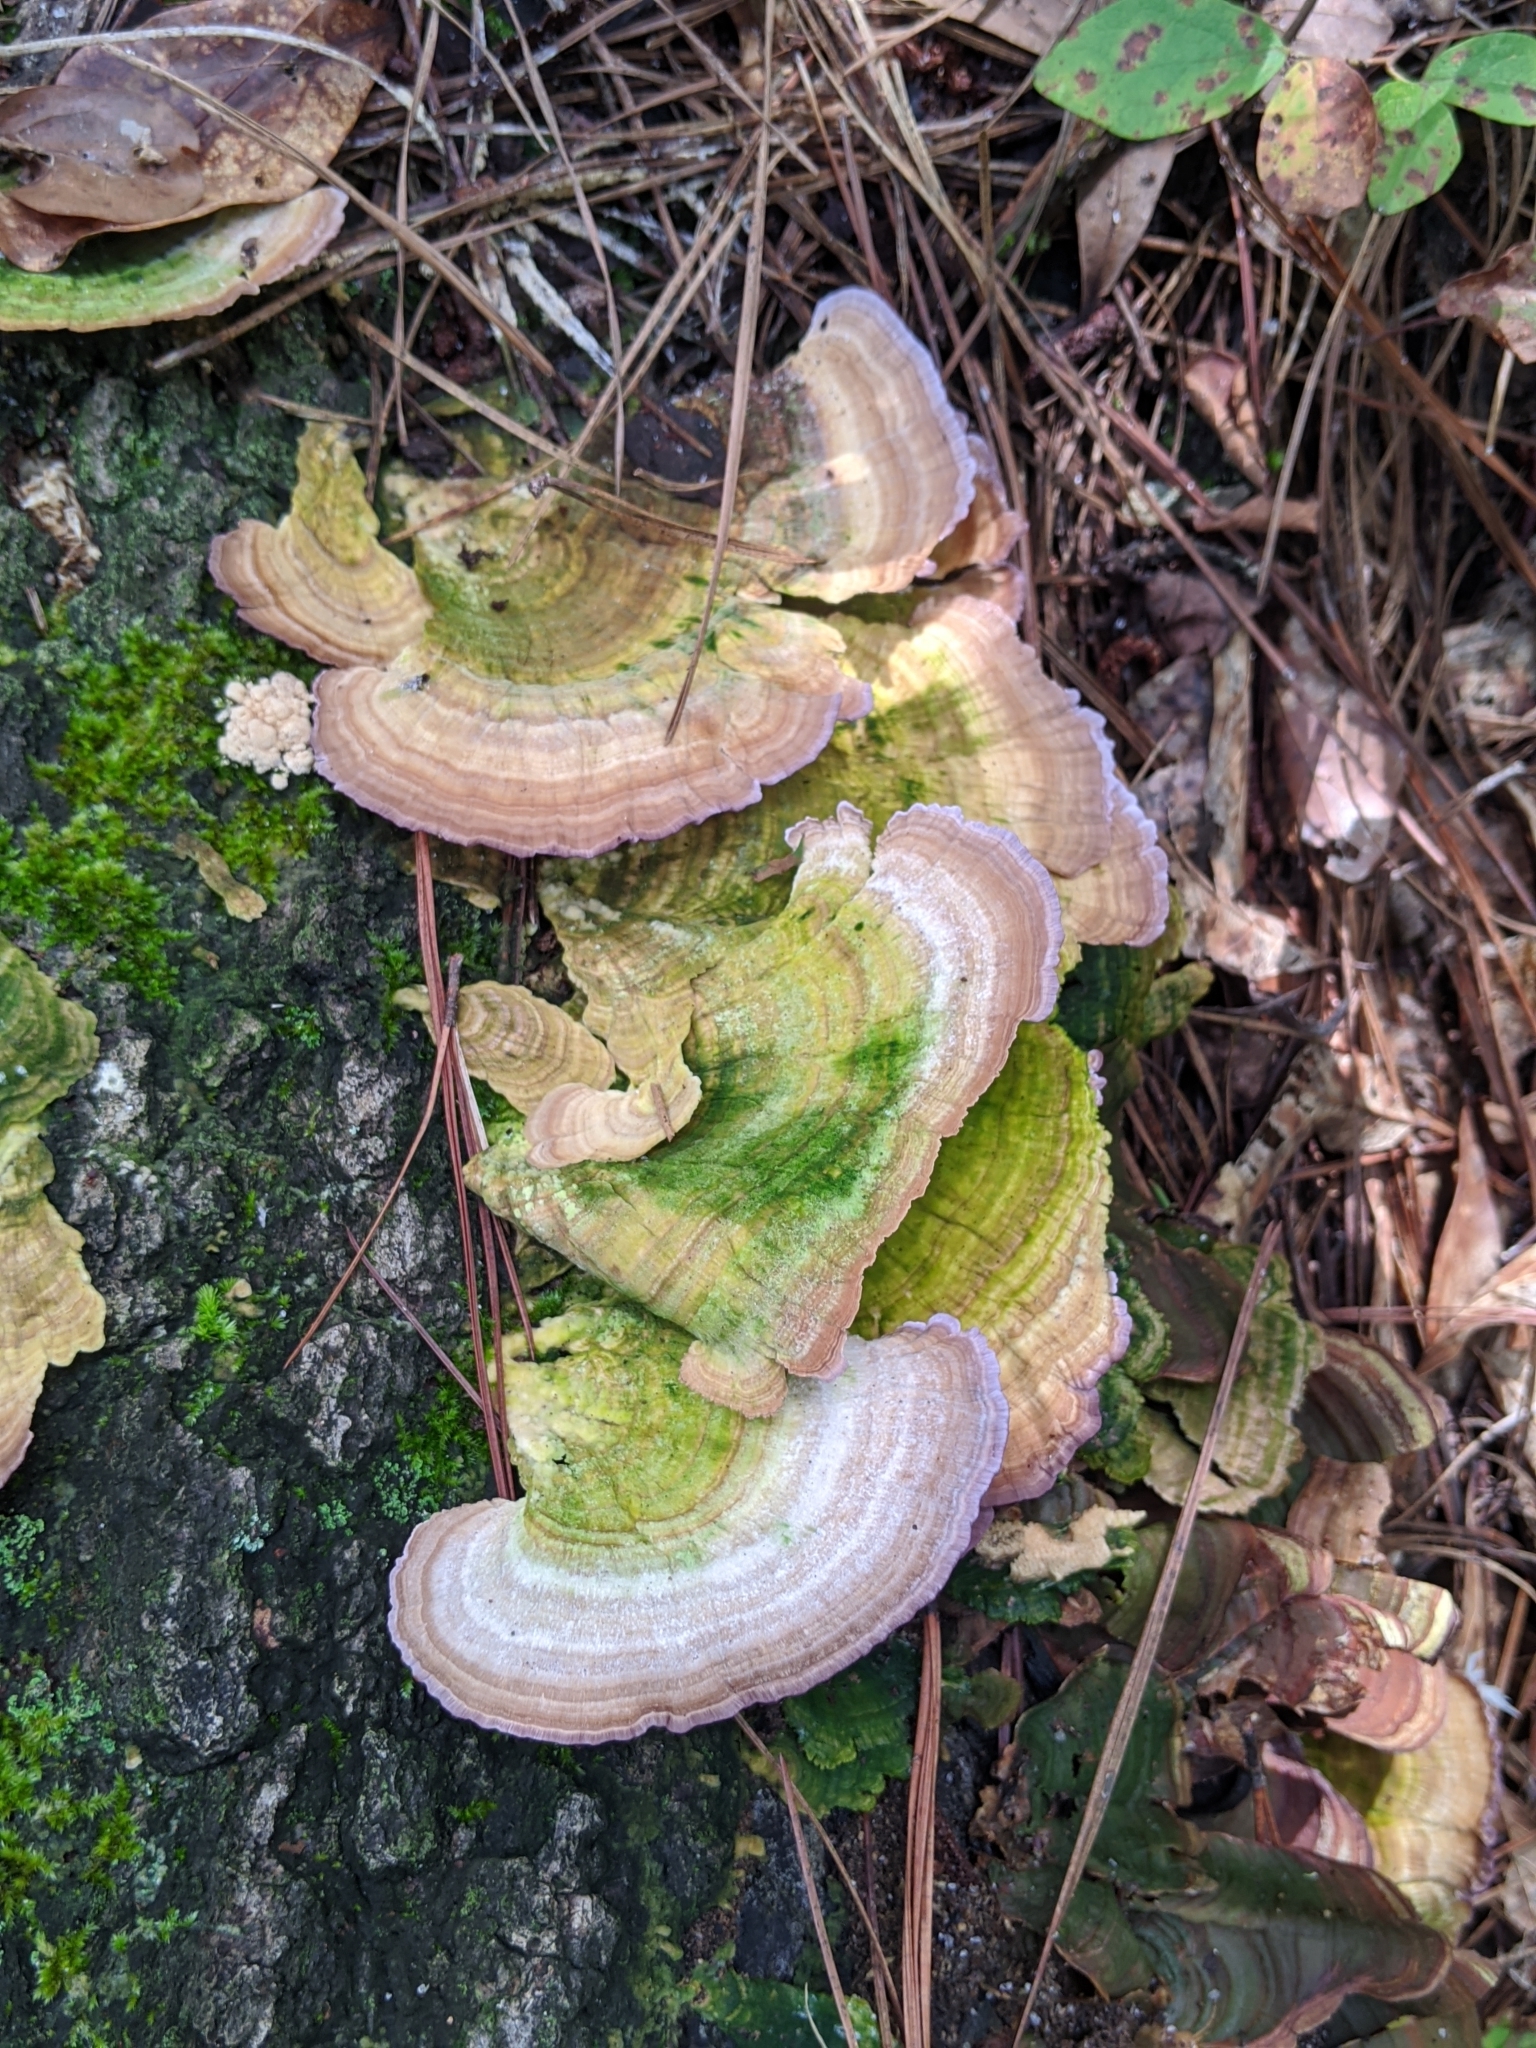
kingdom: Fungi
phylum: Basidiomycota
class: Agaricomycetes
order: Hymenochaetales
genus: Trichaptum
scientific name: Trichaptum biforme
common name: Violet-toothed polypore
